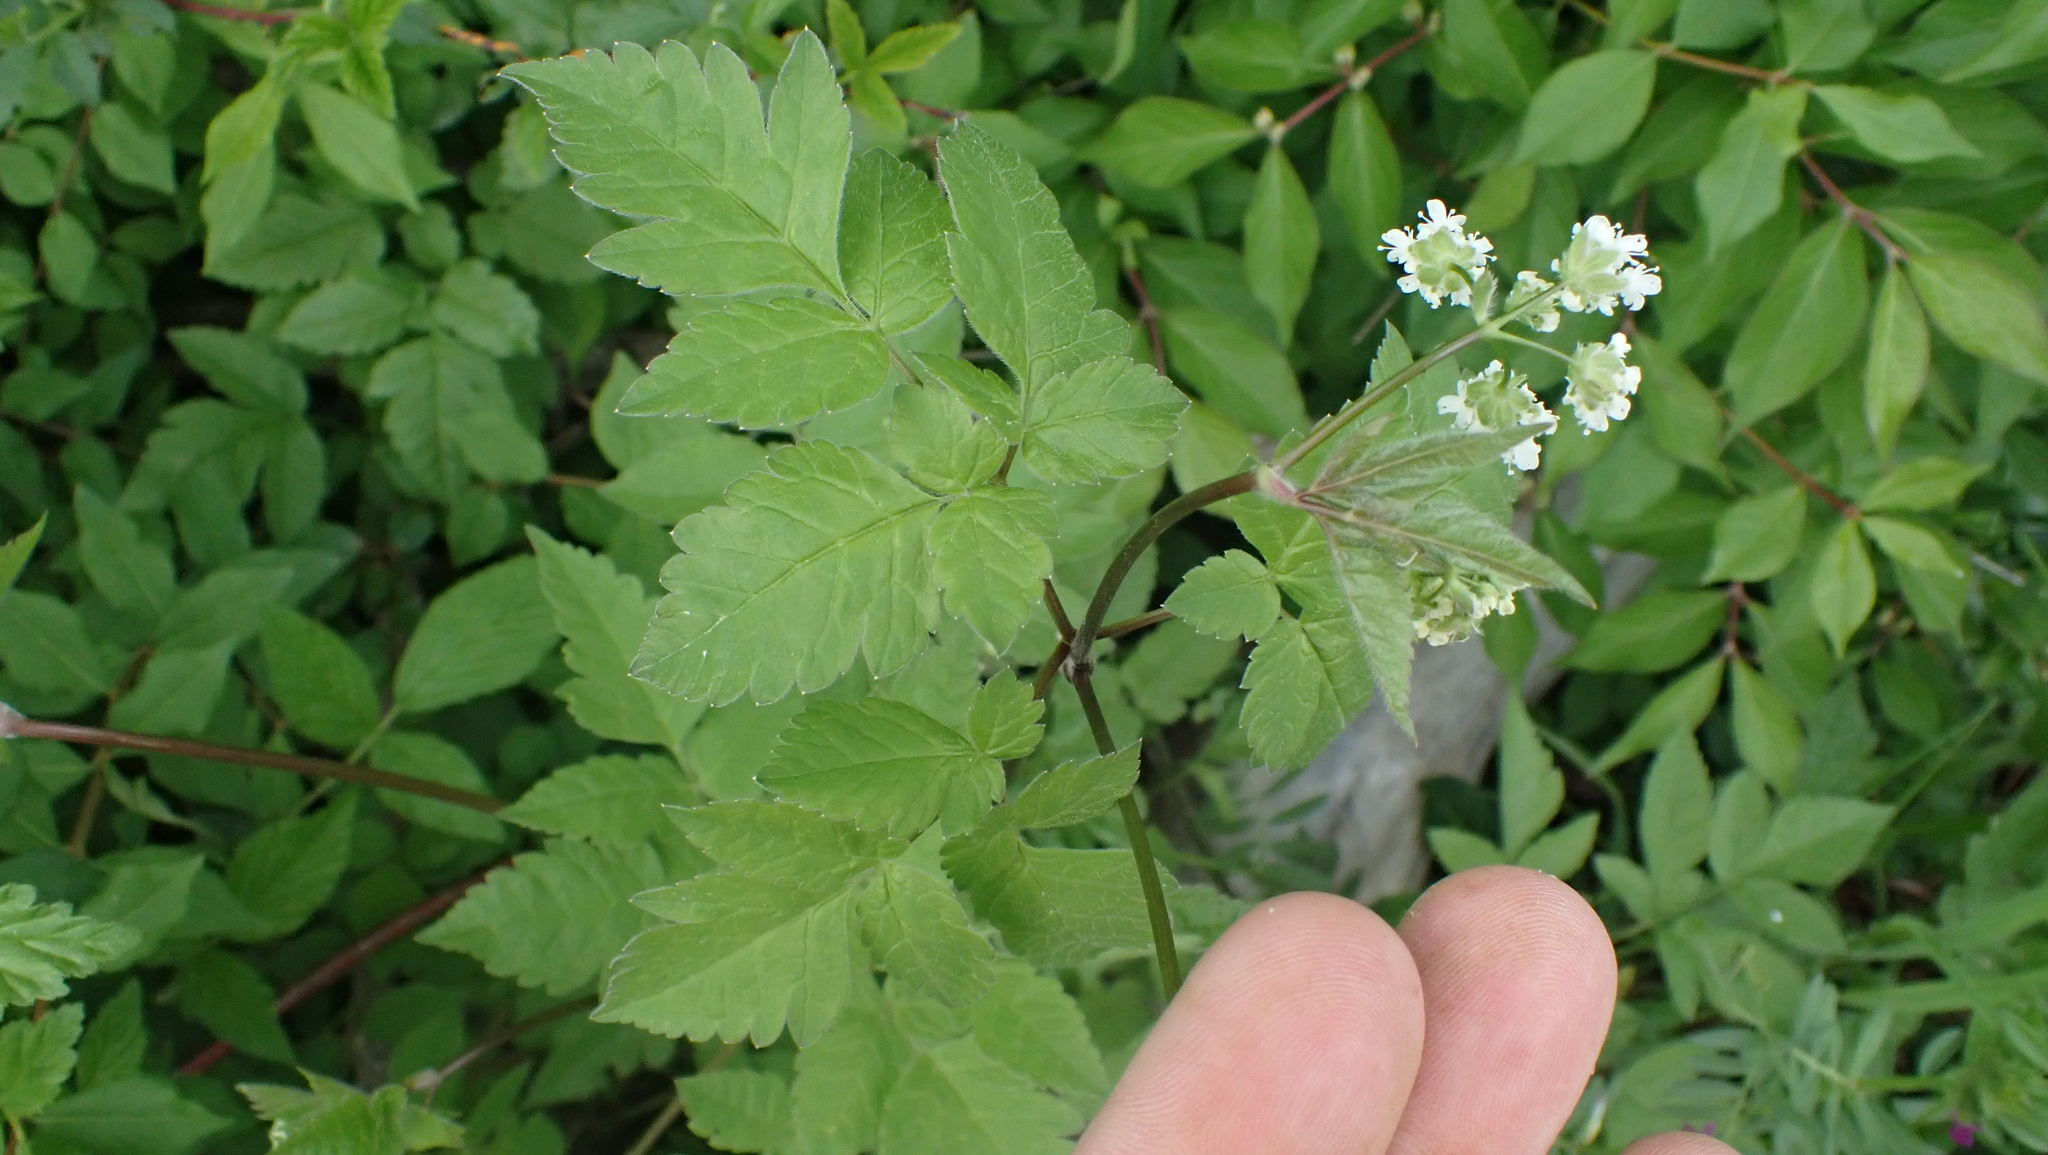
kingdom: Plantae
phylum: Tracheophyta
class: Magnoliopsida
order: Apiales
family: Apiaceae
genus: Osmorhiza
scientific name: Osmorhiza longistylis
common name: Smooth sweet cicely
